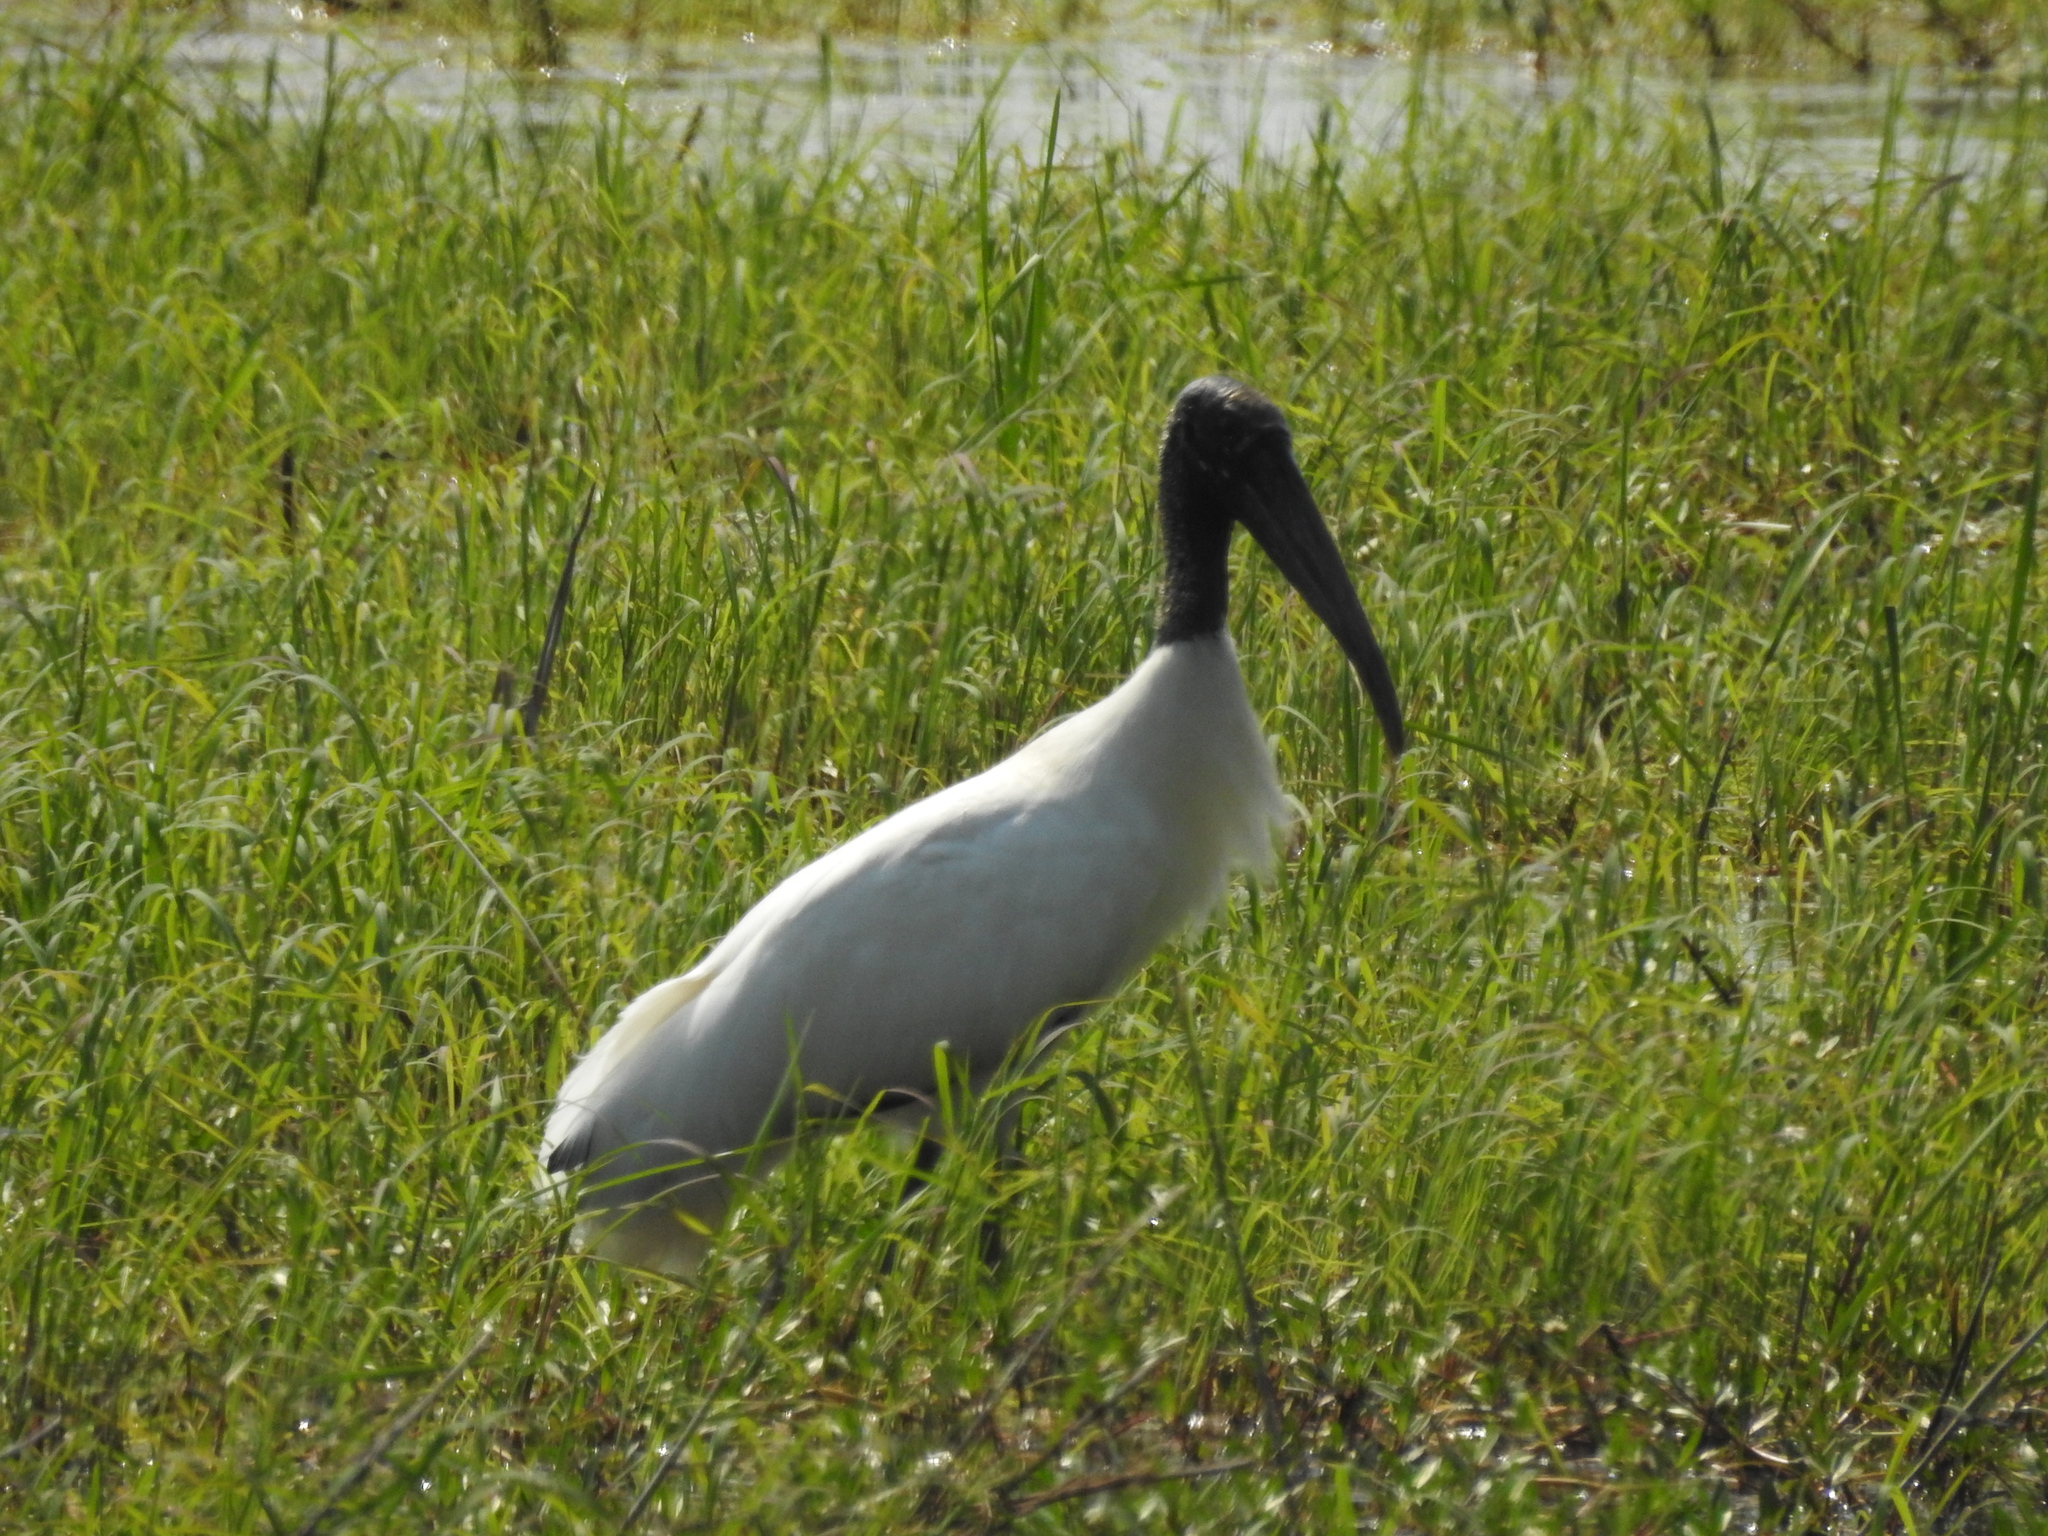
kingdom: Animalia
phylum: Chordata
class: Aves
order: Ciconiiformes
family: Ciconiidae
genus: Mycteria
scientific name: Mycteria americana
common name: Wood stork
